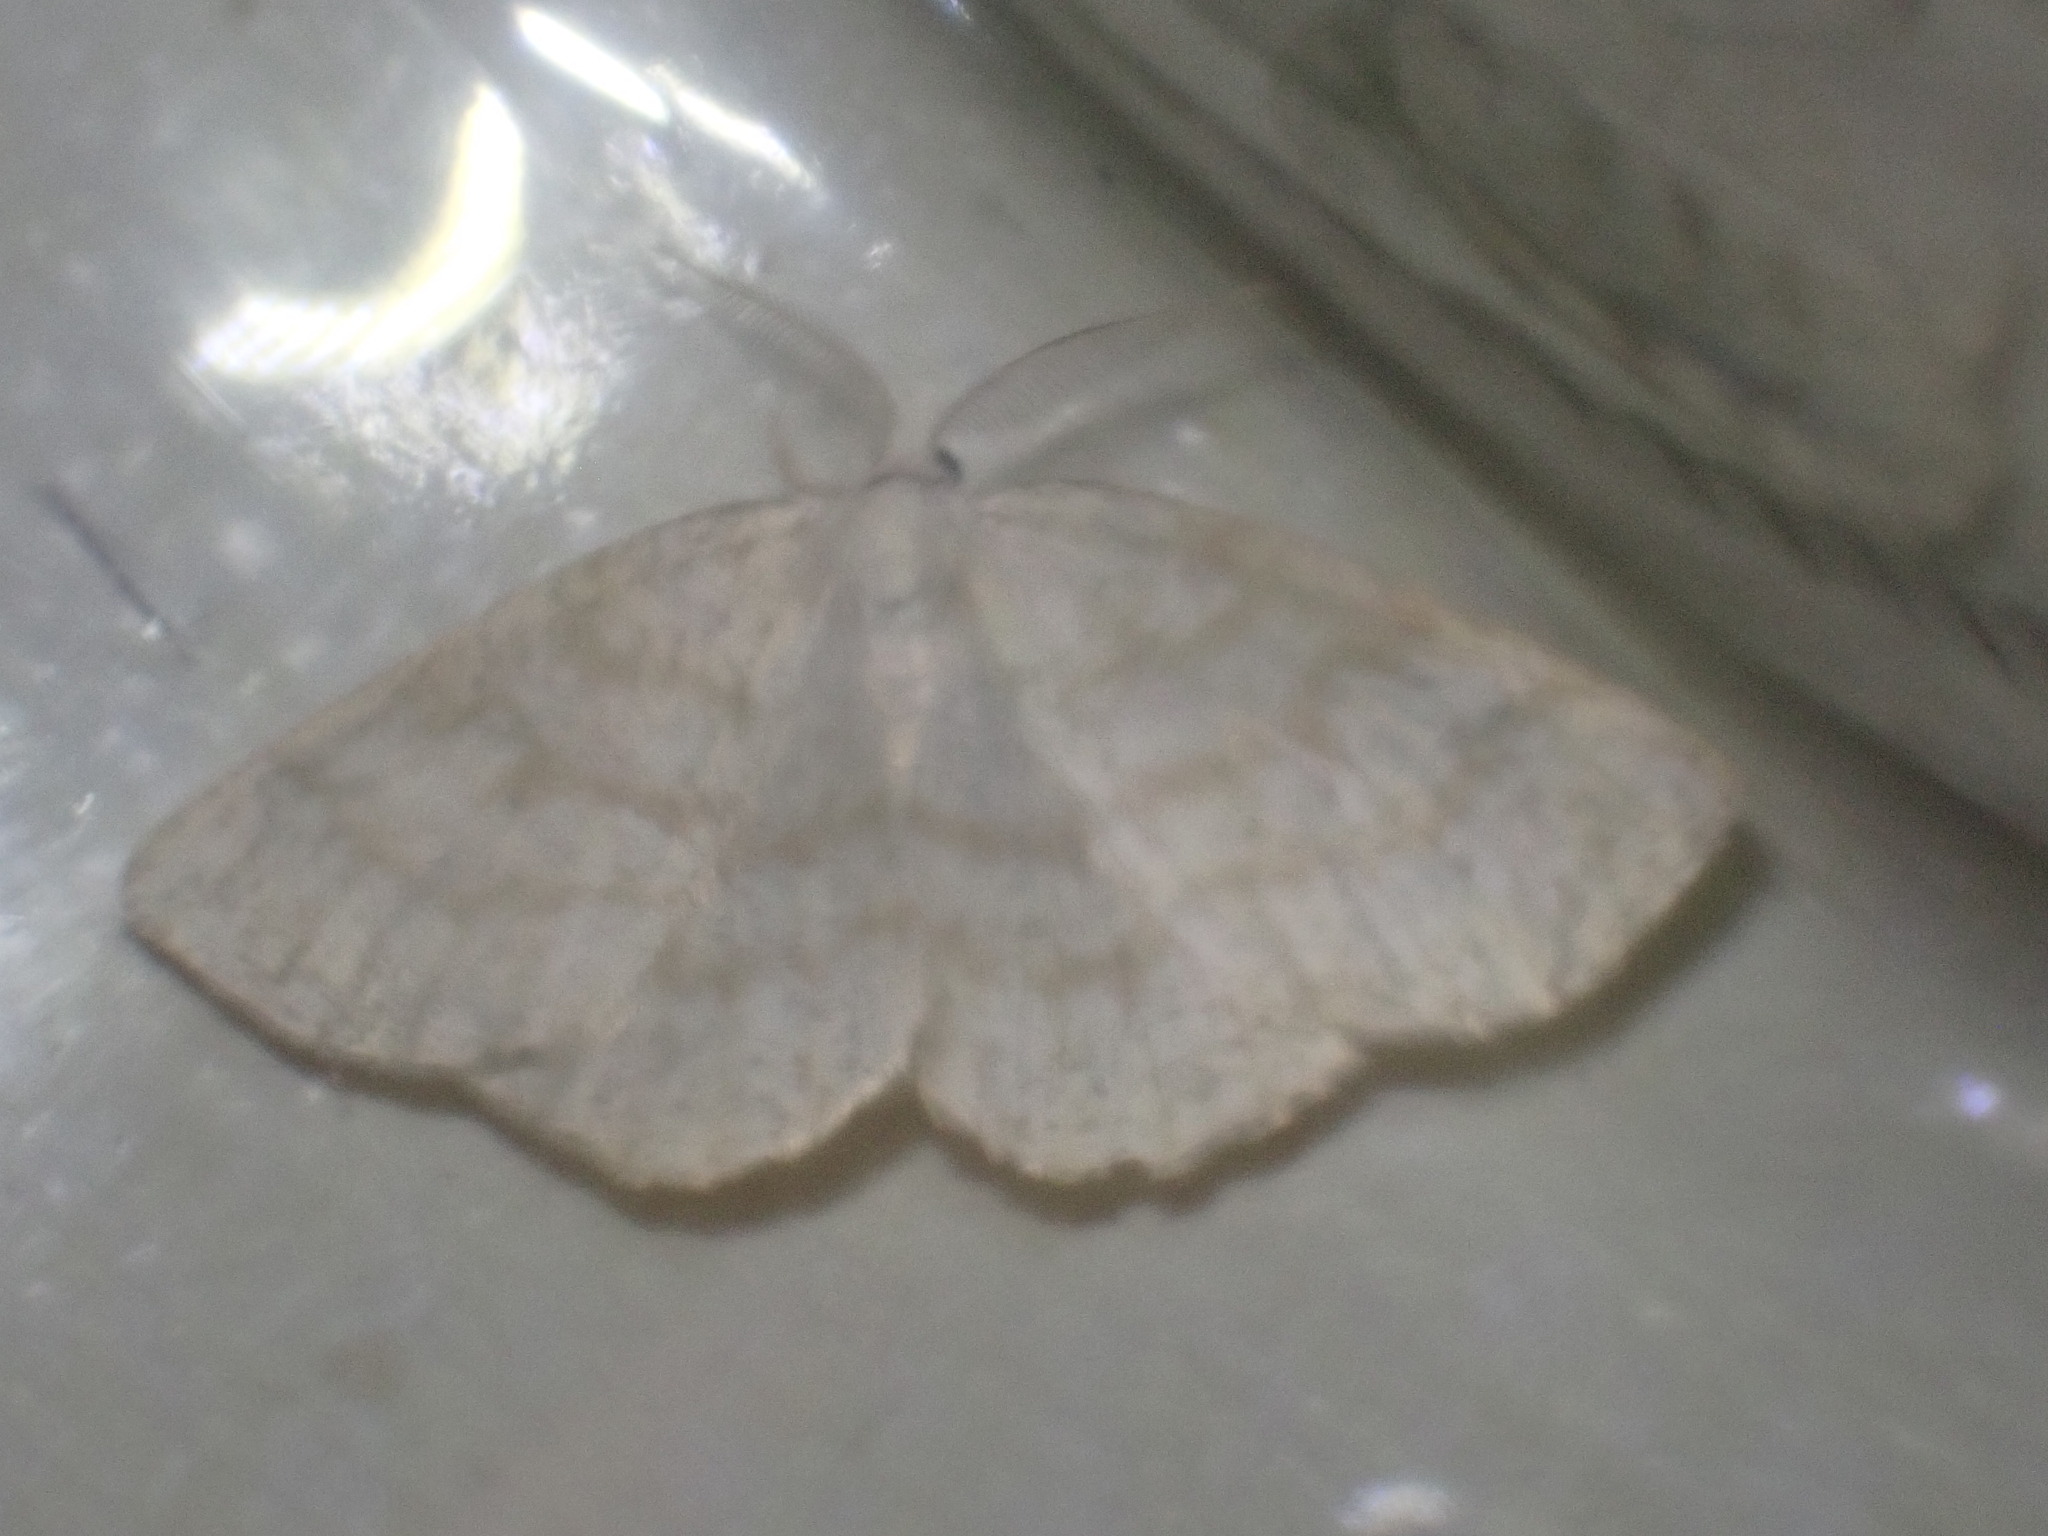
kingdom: Animalia
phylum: Arthropoda
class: Insecta
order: Lepidoptera
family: Geometridae
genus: Cabera
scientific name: Cabera exanthemata
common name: Common wave
